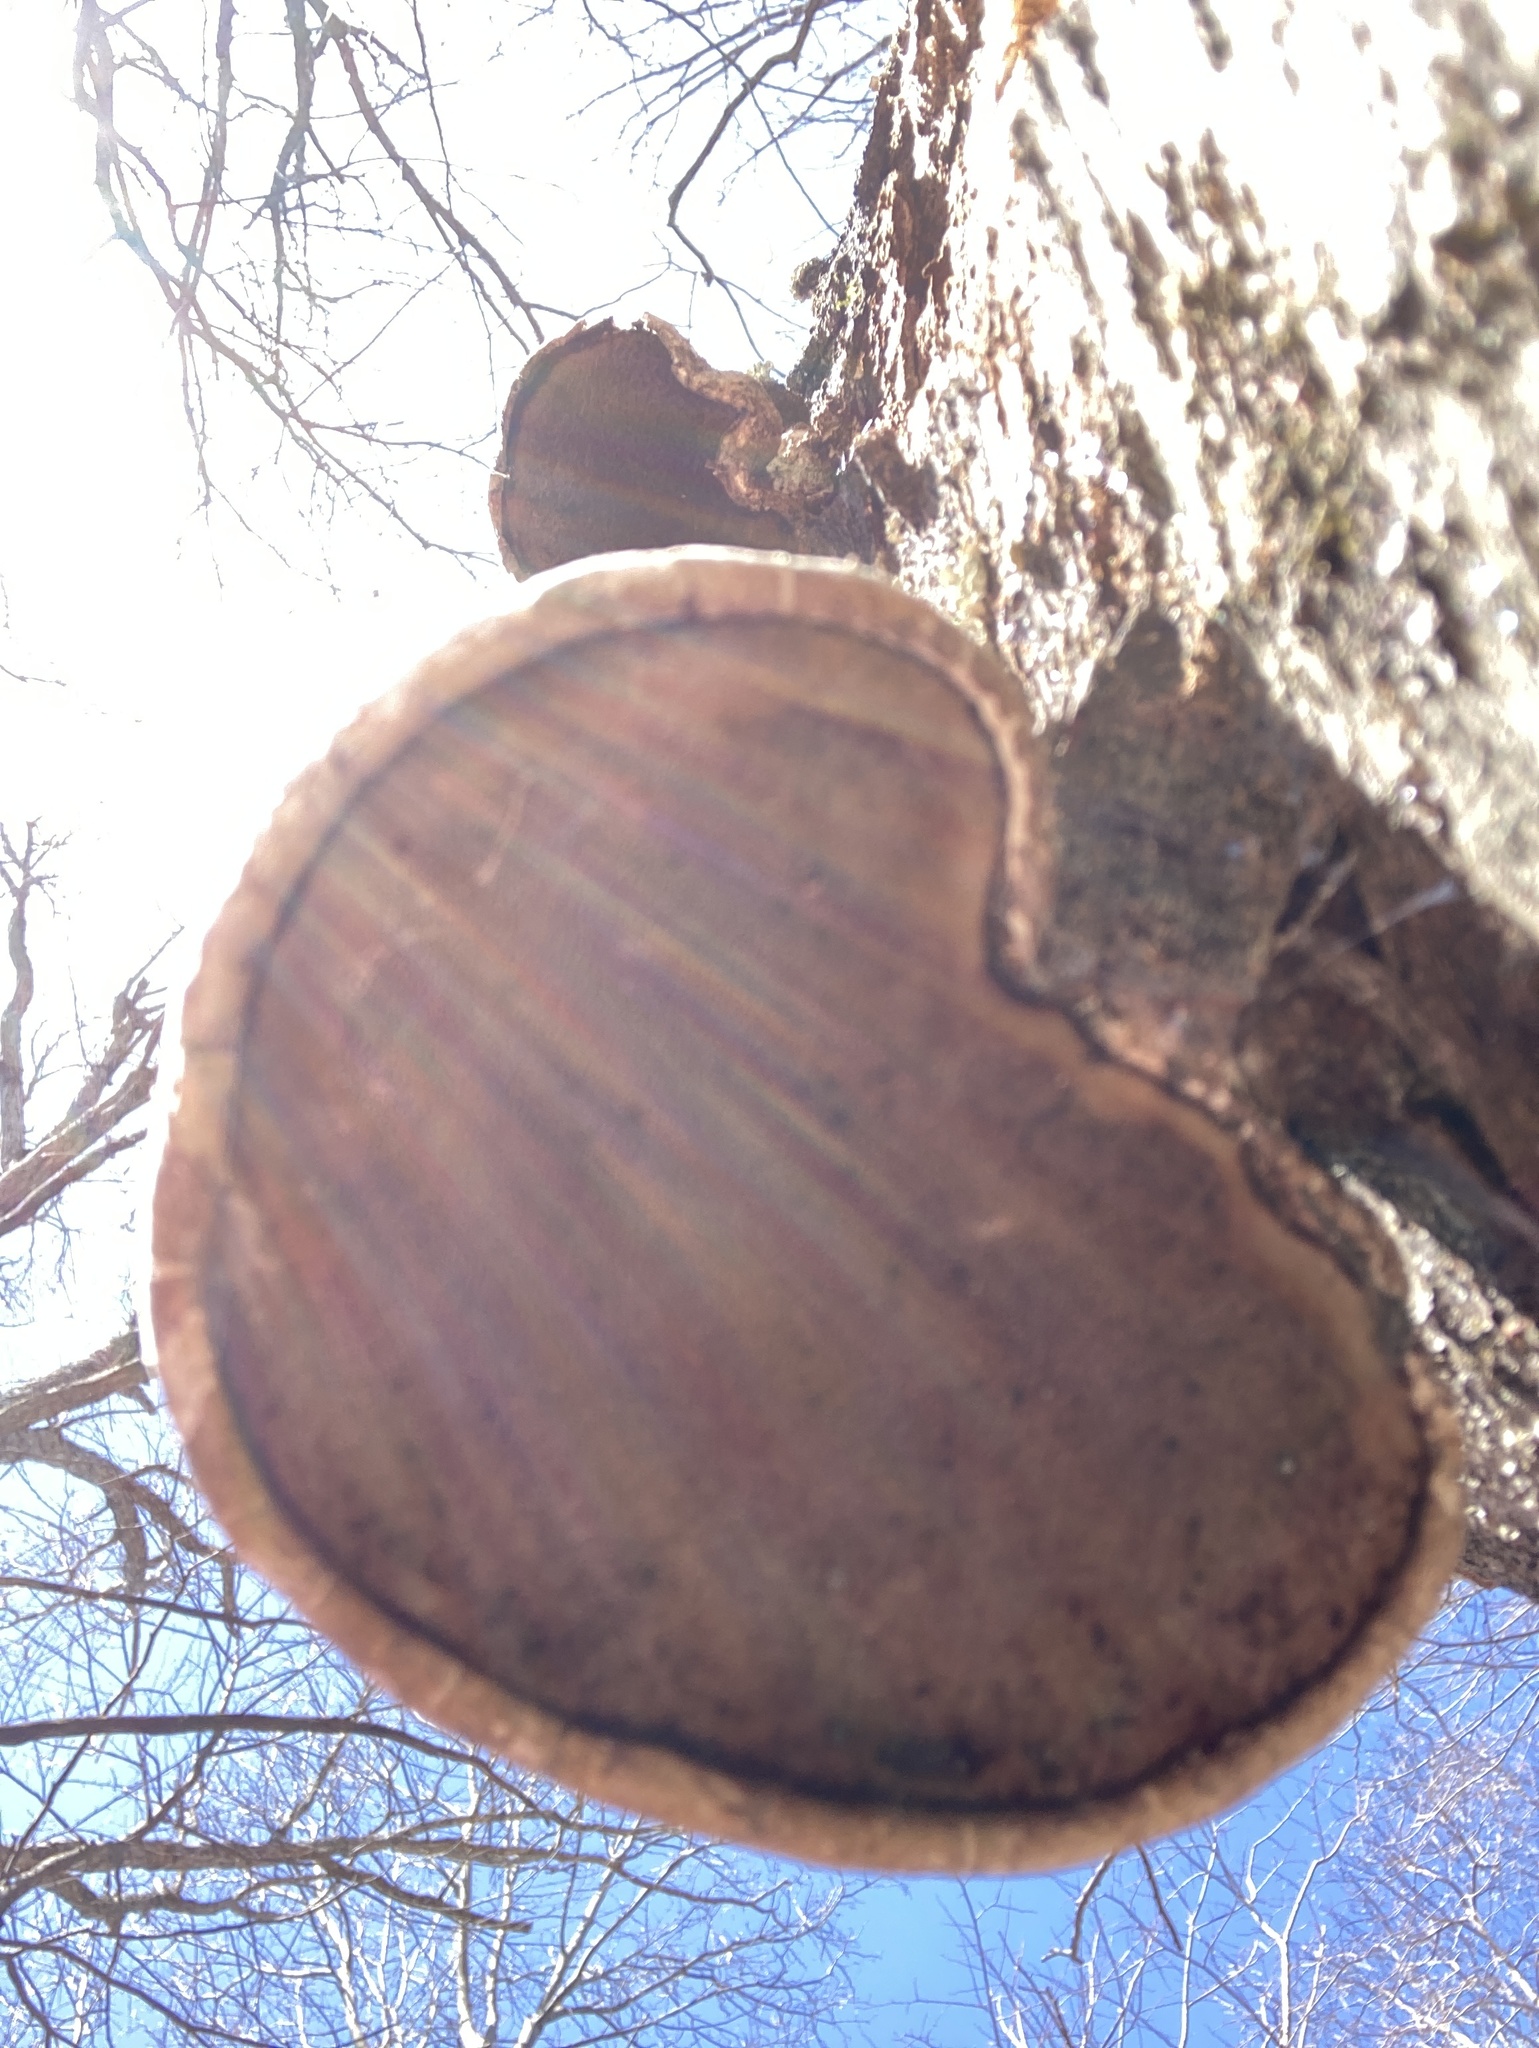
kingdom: Fungi
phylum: Basidiomycota
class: Agaricomycetes
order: Polyporales
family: Fomitopsidaceae
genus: Fomitopsis
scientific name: Fomitopsis betulina
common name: Birch polypore
